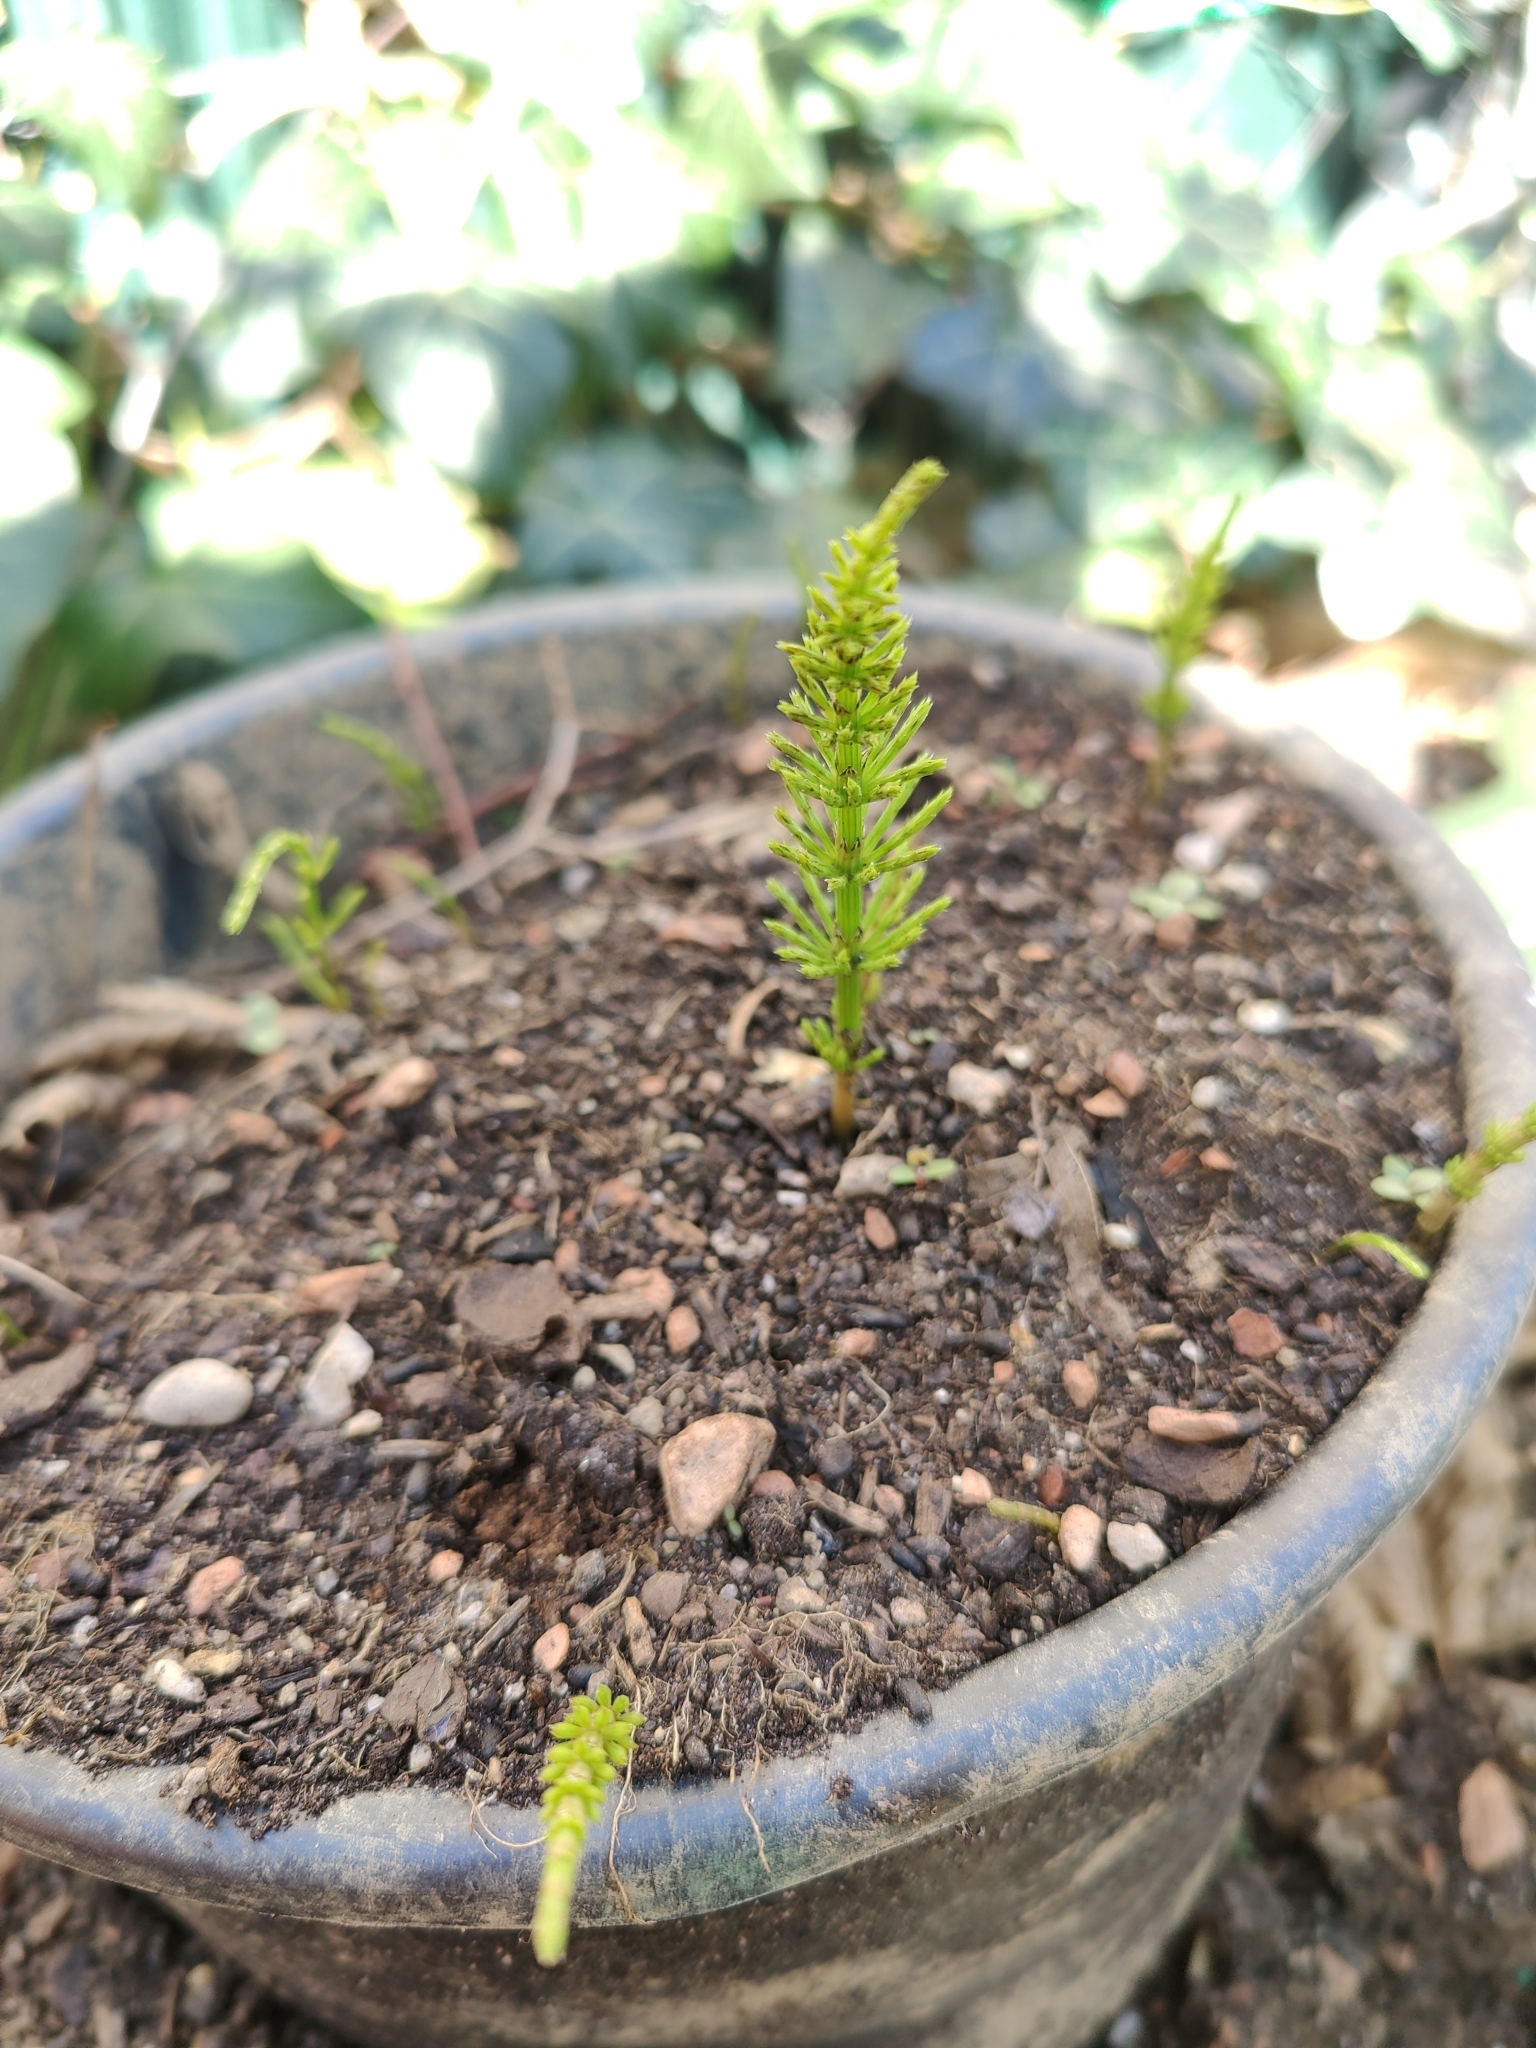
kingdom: Plantae
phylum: Tracheophyta
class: Polypodiopsida
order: Equisetales
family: Equisetaceae
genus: Equisetum
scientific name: Equisetum arvense
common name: Field horsetail
